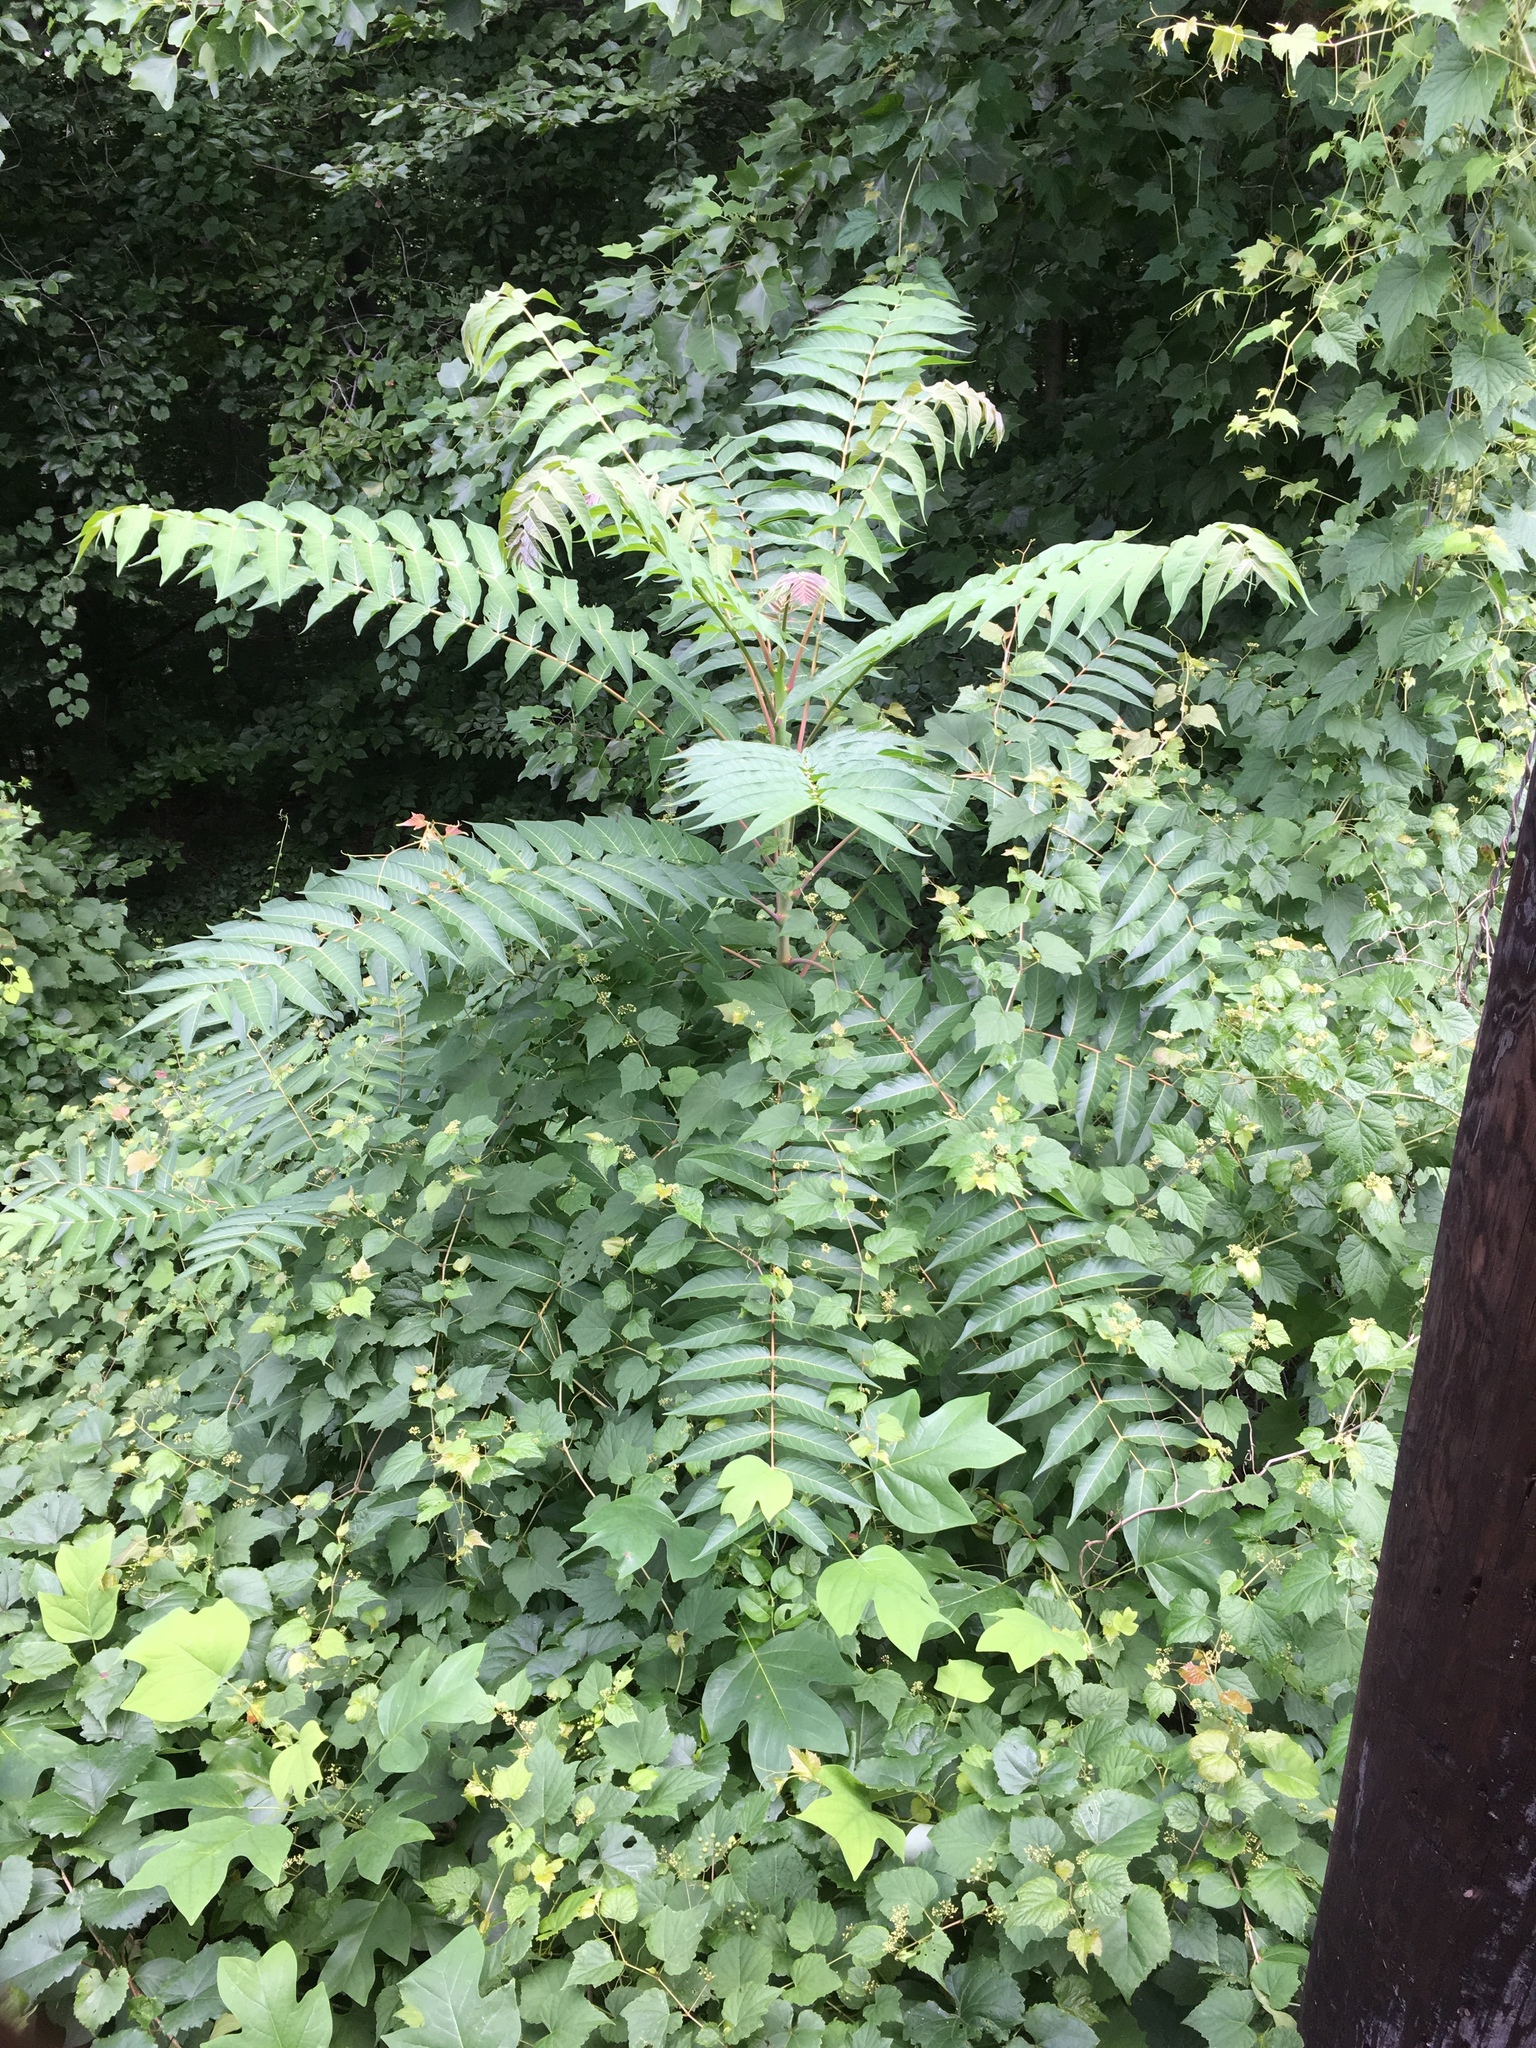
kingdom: Plantae
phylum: Tracheophyta
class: Magnoliopsida
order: Sapindales
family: Simaroubaceae
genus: Ailanthus
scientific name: Ailanthus altissima
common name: Tree-of-heaven
